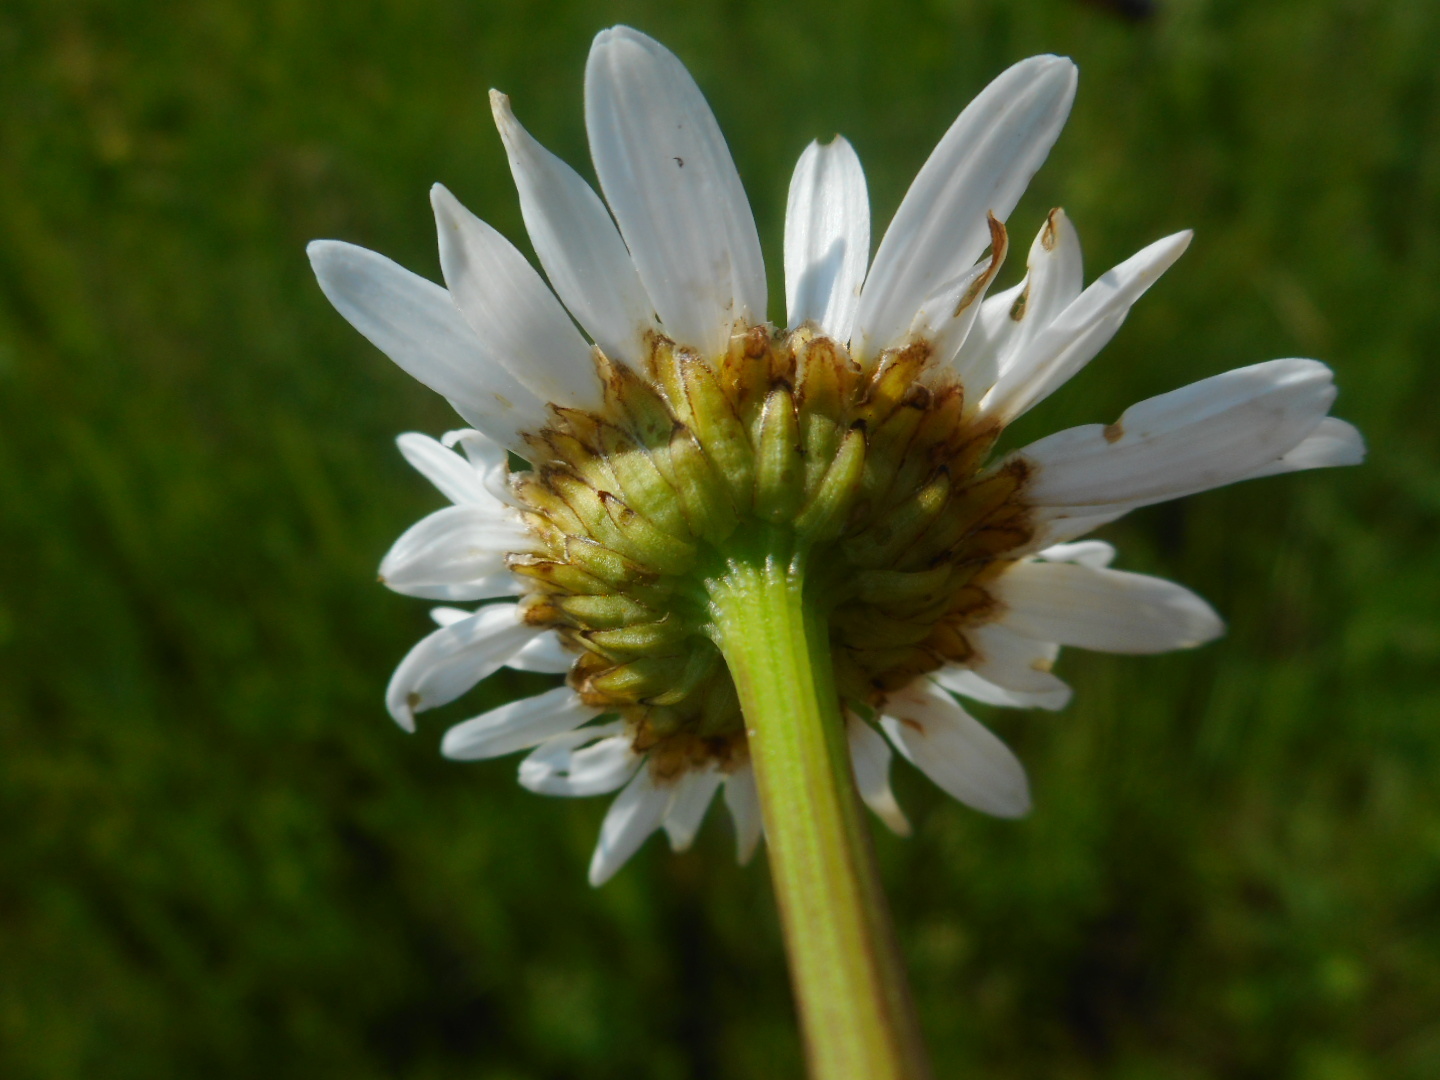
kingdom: Plantae
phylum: Tracheophyta
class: Magnoliopsida
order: Asterales
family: Asteraceae
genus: Leucanthemum
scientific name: Leucanthemum vulgare
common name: Oxeye daisy
